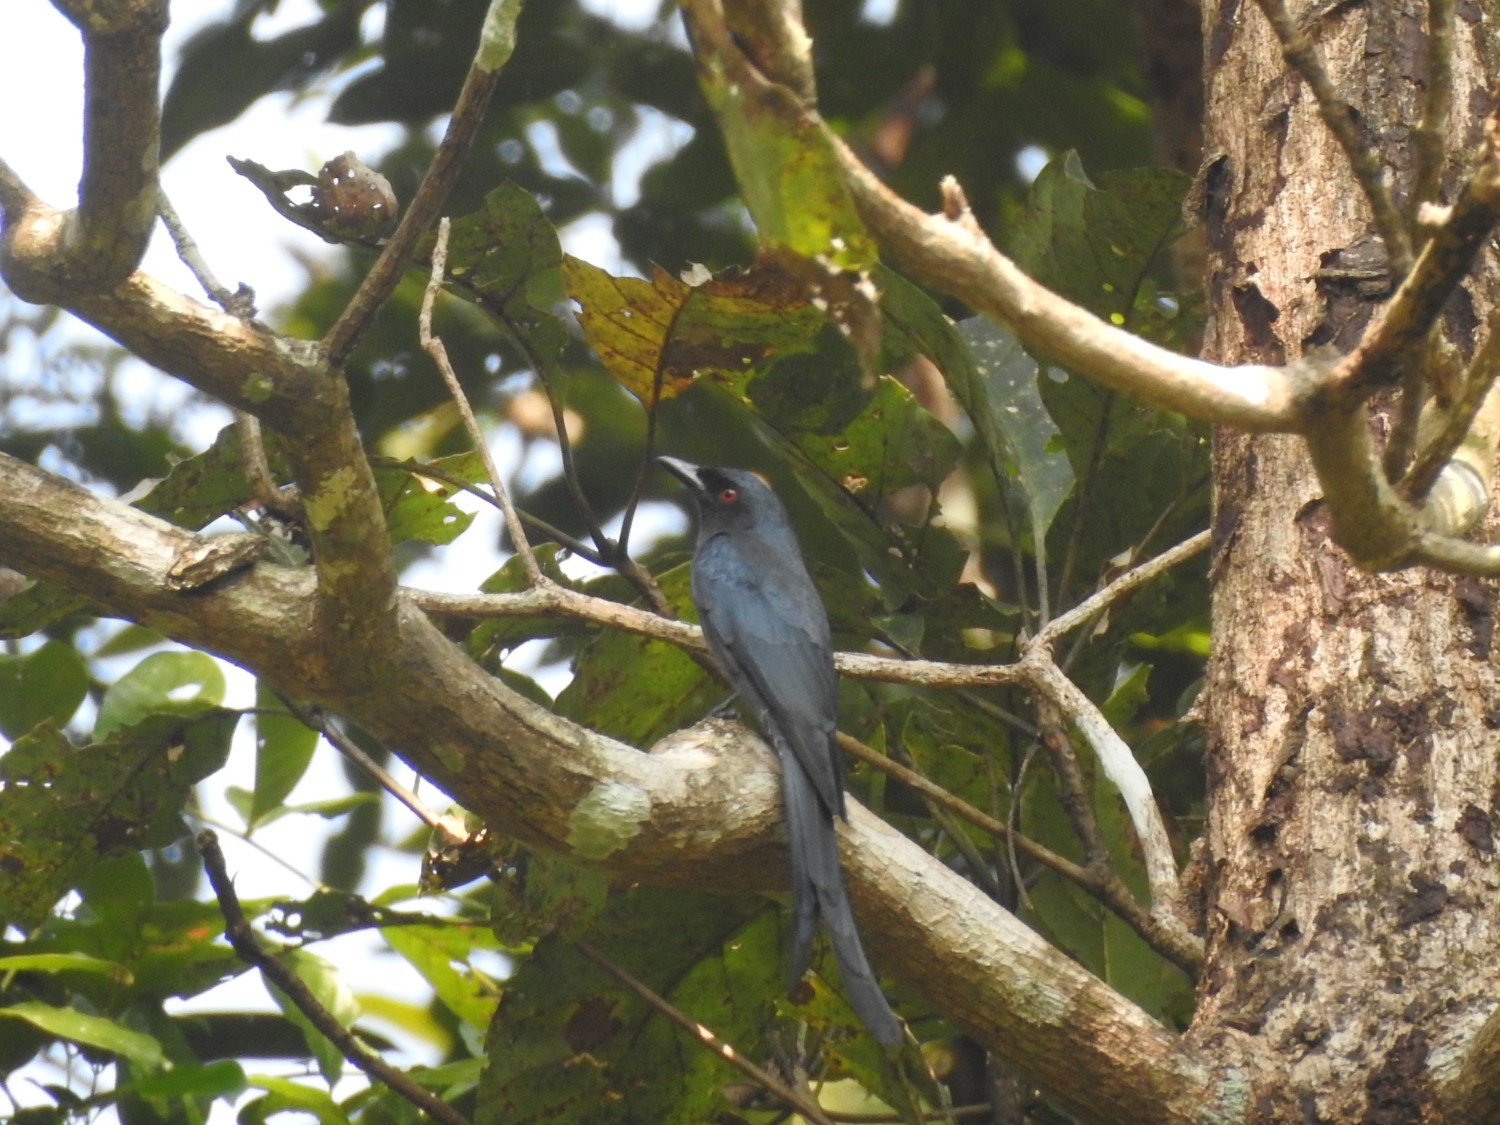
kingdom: Animalia
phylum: Chordata
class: Aves
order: Passeriformes
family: Dicruridae
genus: Dicrurus
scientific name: Dicrurus leucophaeus
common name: Ashy drongo
